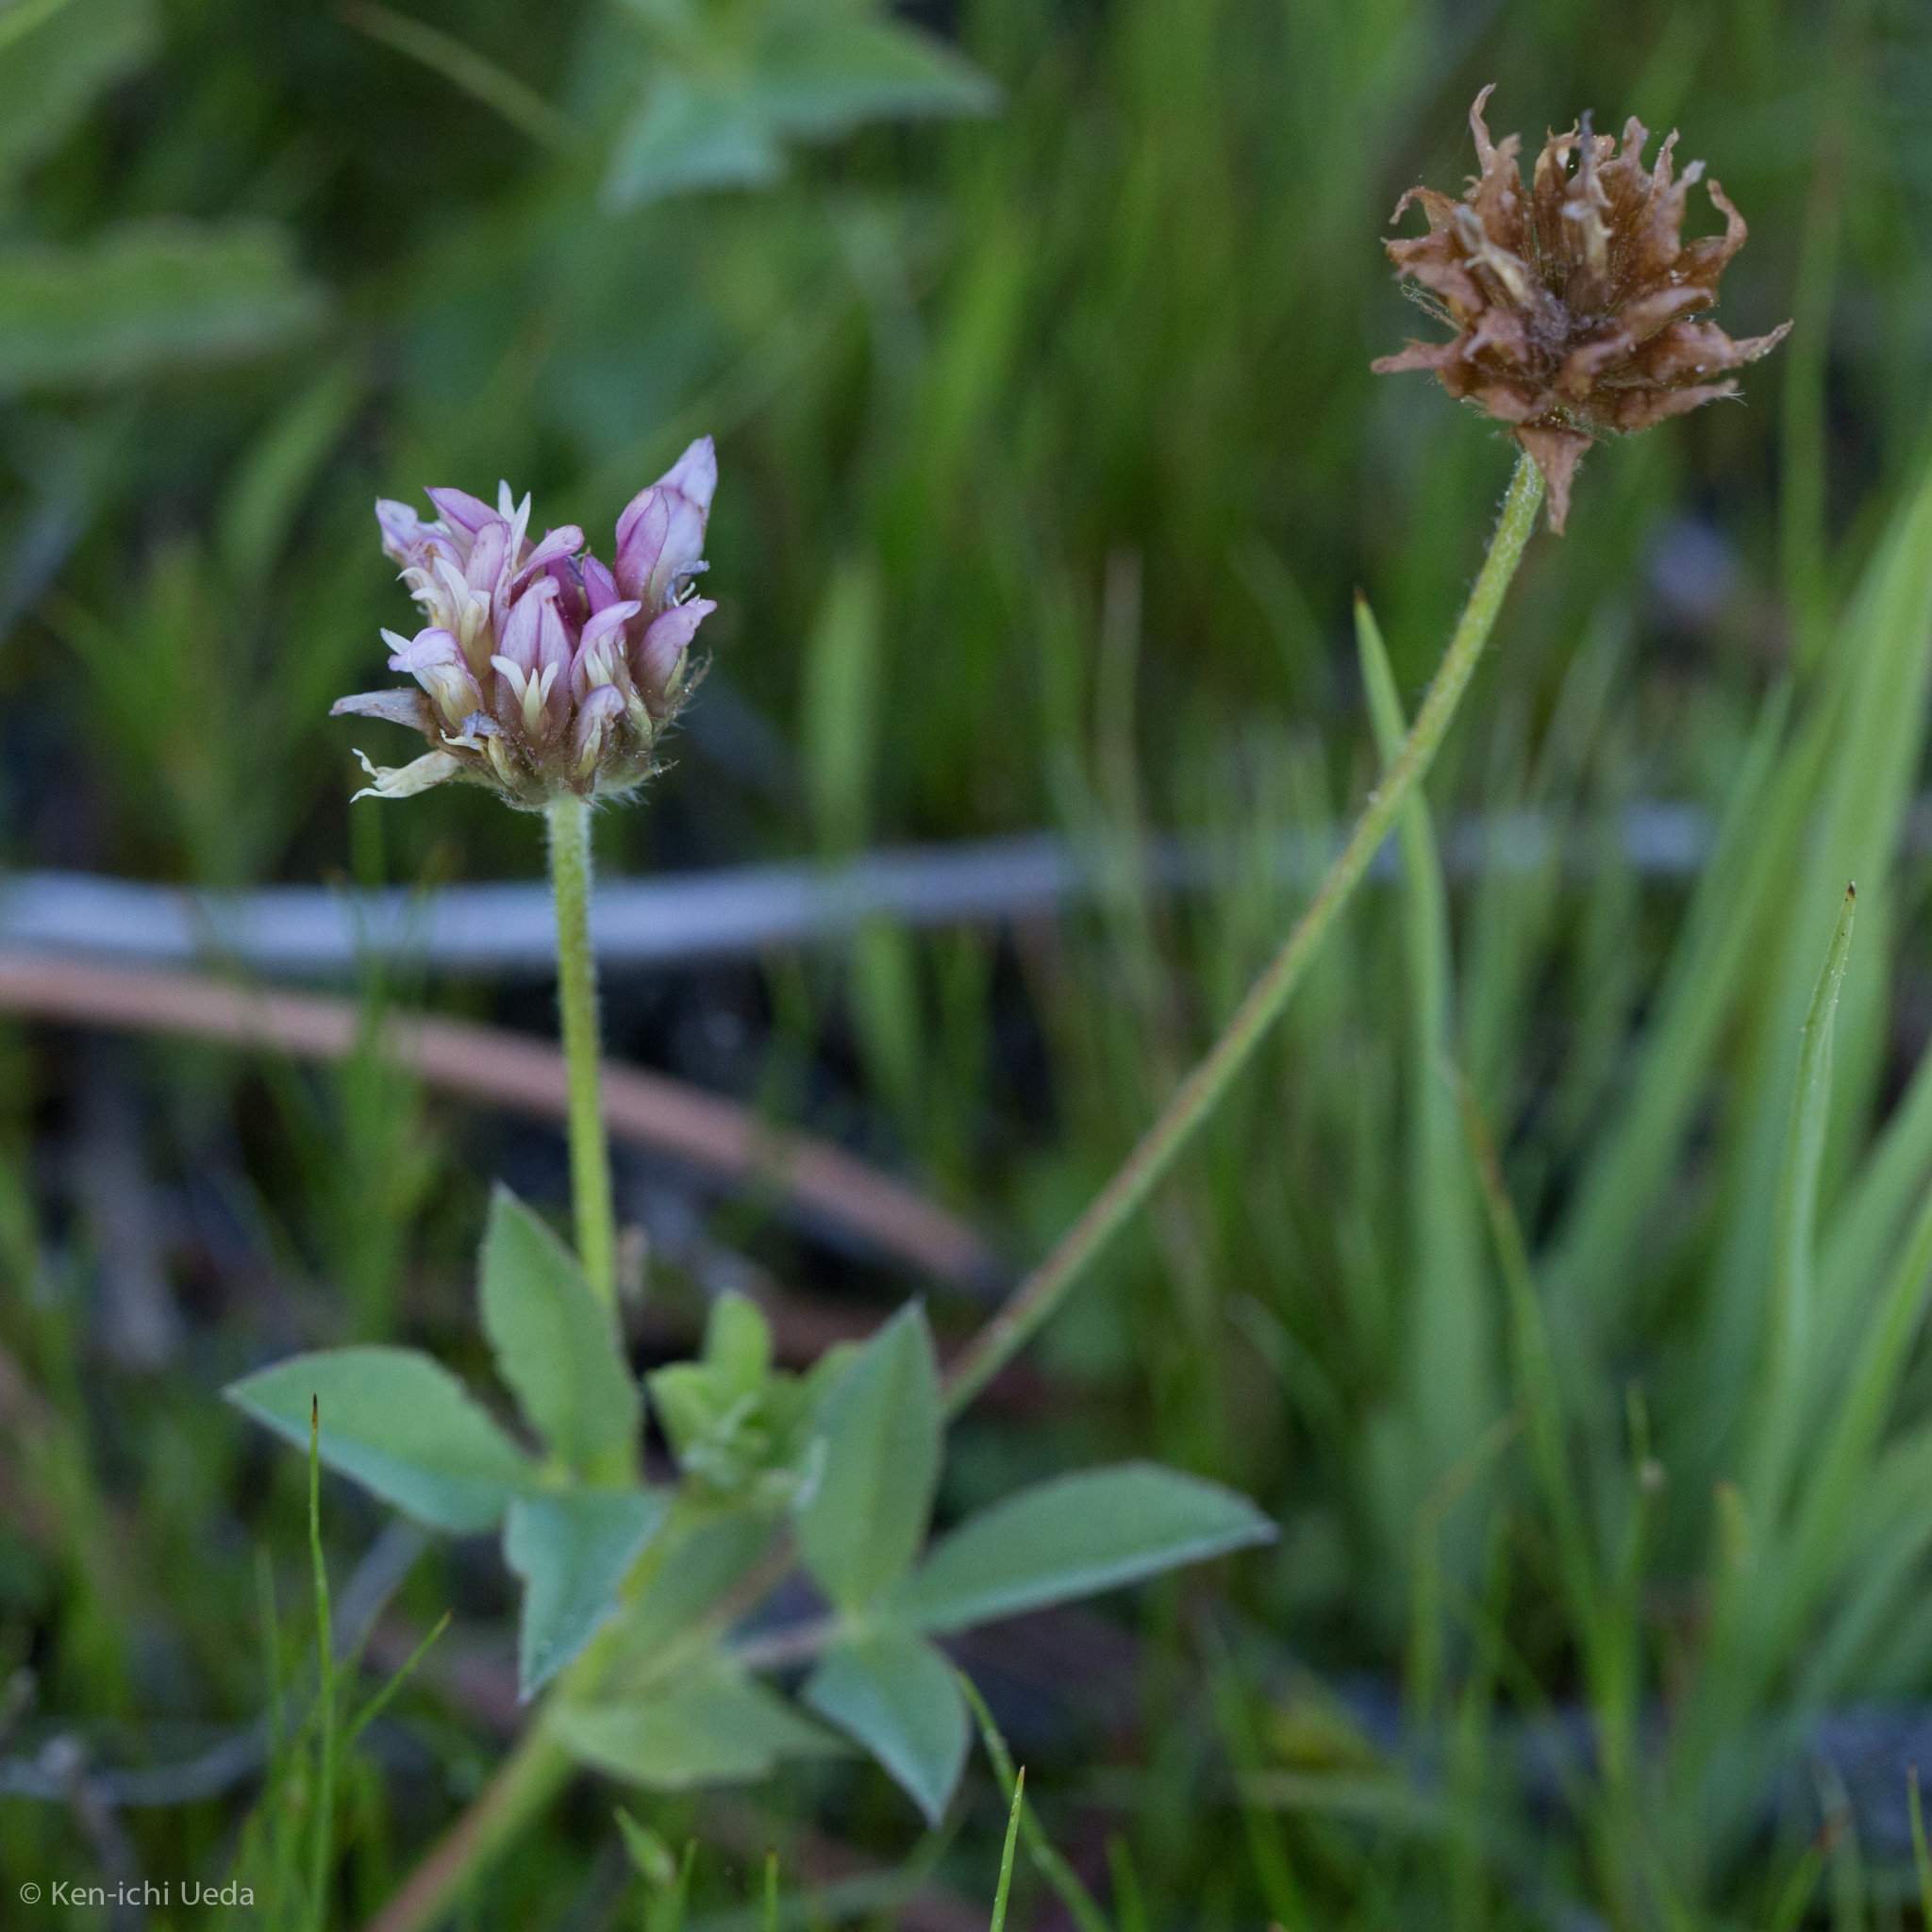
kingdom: Plantae
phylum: Tracheophyta
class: Magnoliopsida
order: Fabales
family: Fabaceae
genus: Trifolium
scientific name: Trifolium longipes
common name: Long-stalk clover
